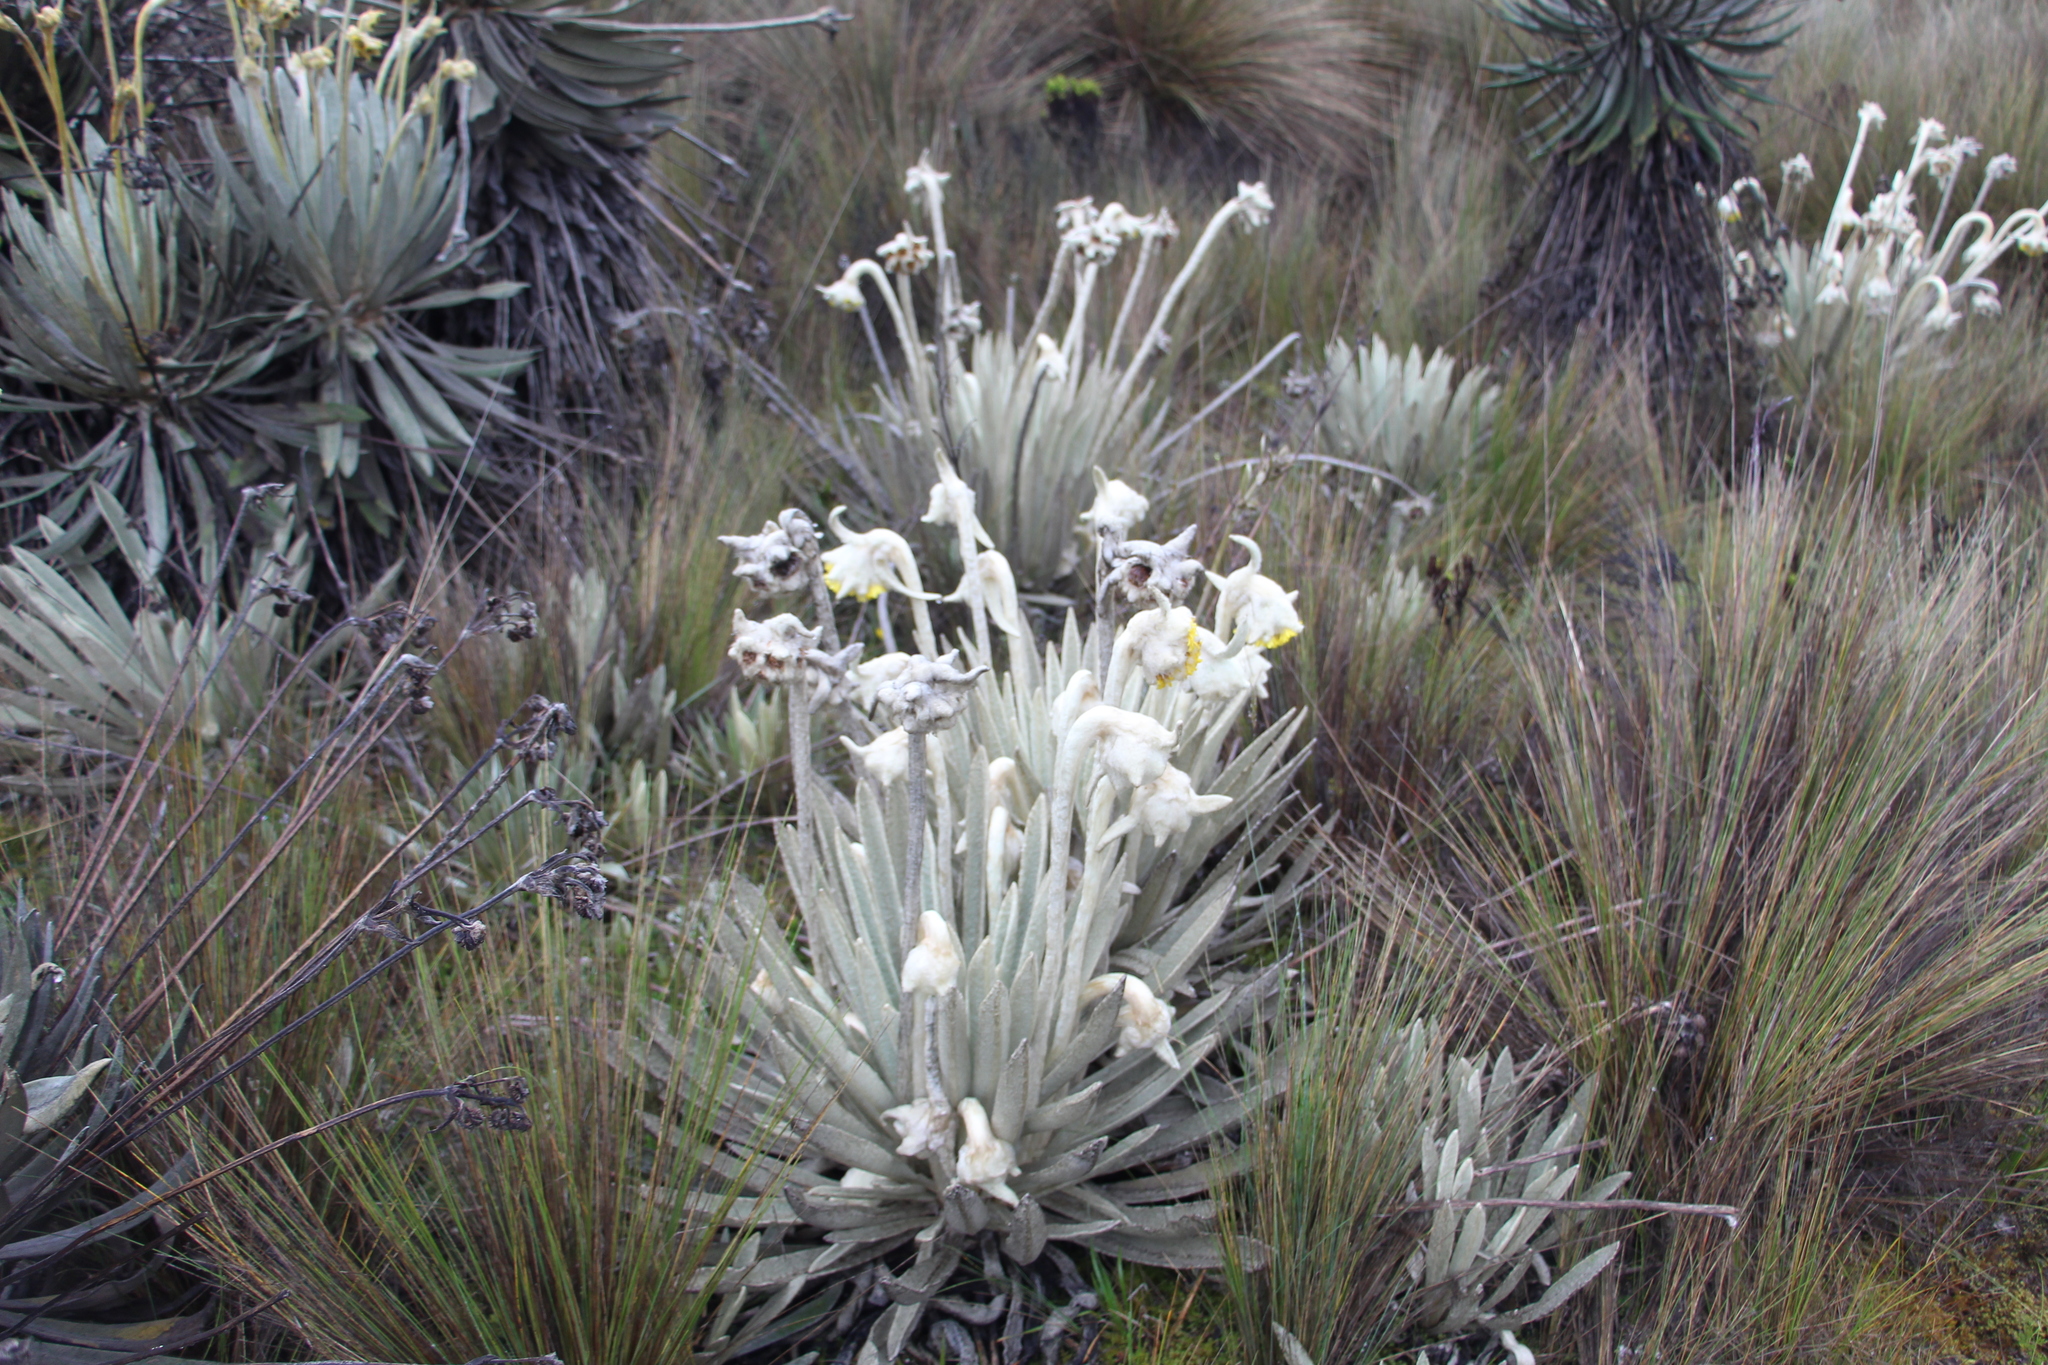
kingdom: Plantae
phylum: Tracheophyta
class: Magnoliopsida
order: Asterales
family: Asteraceae
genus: Espeletia
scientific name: Espeletia congestiflora
